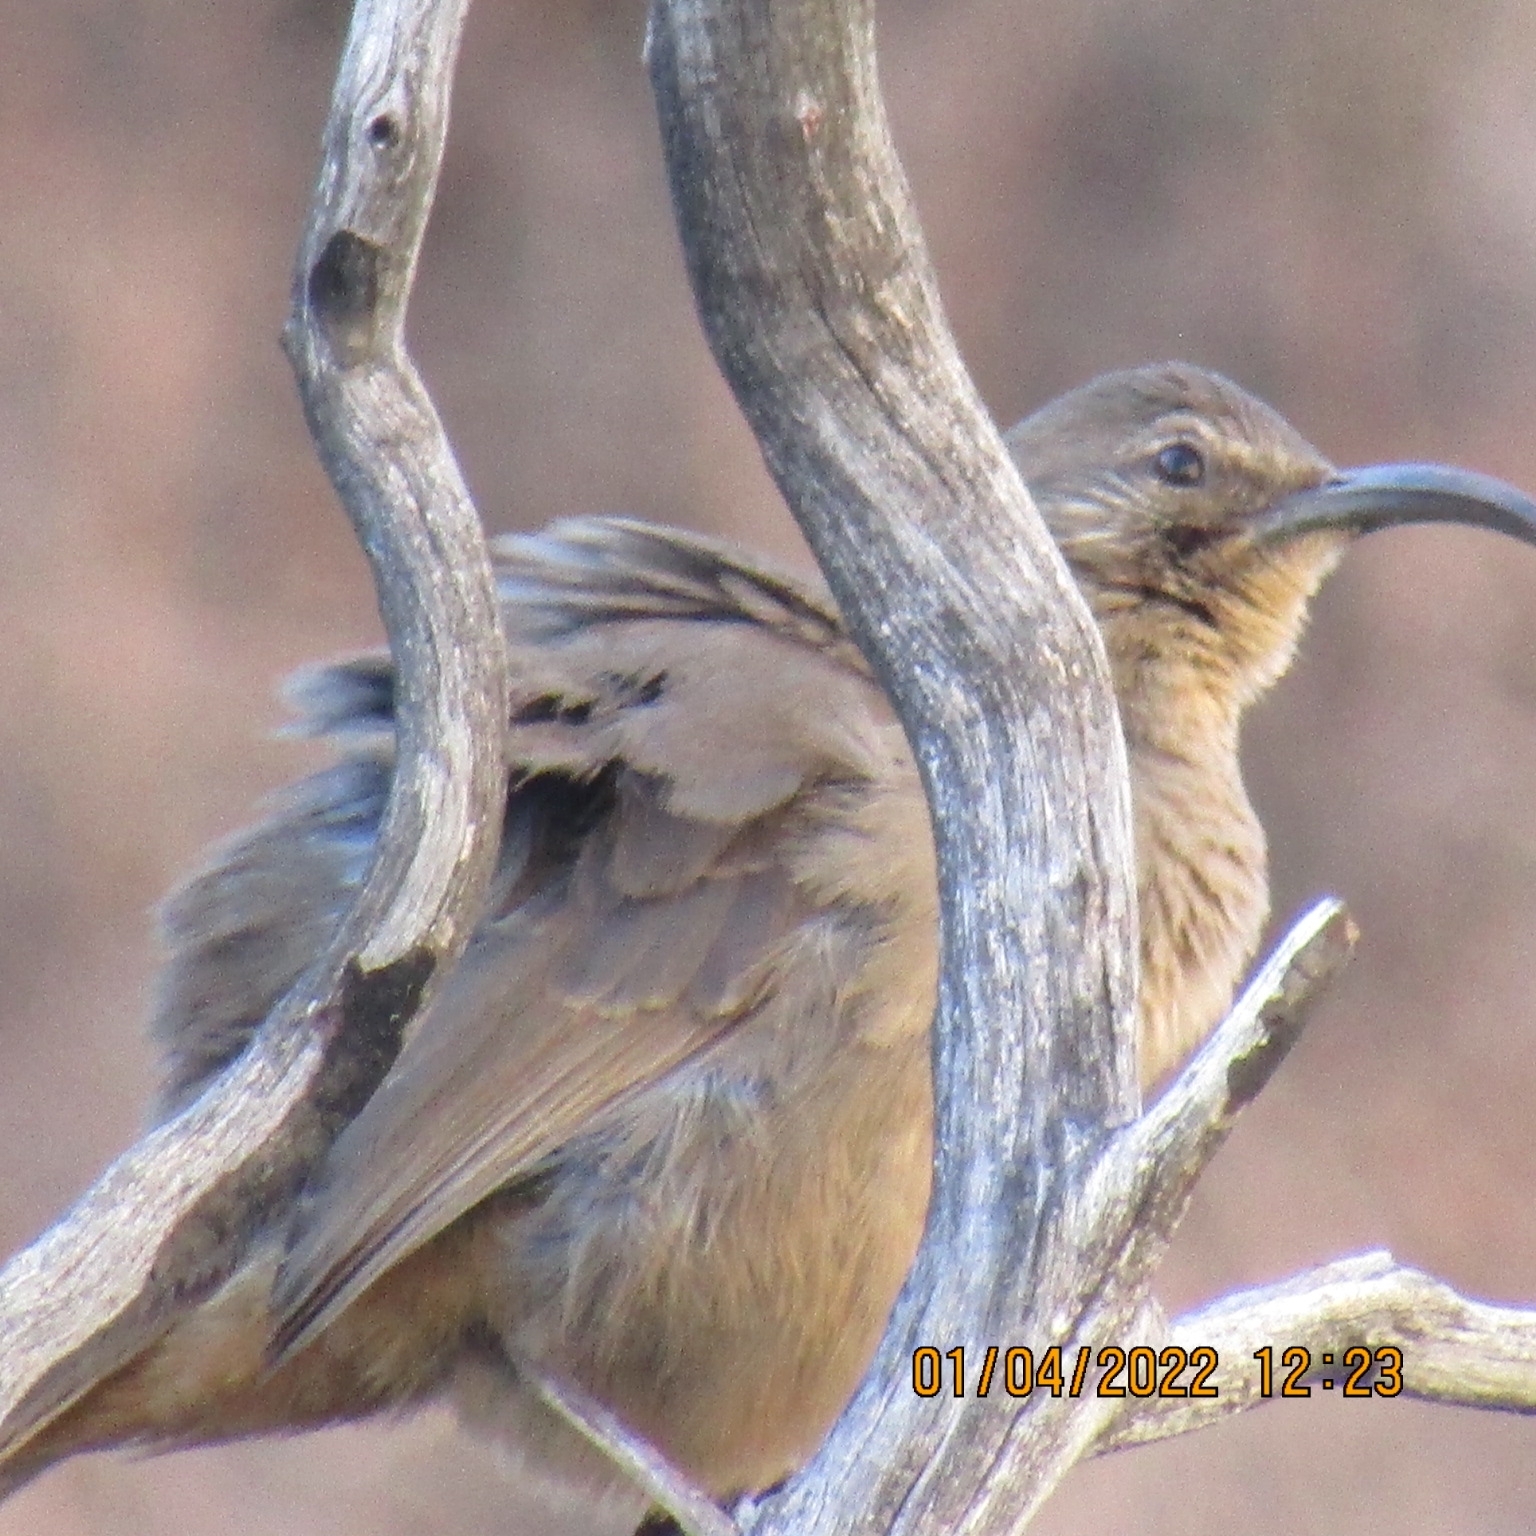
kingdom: Animalia
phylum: Chordata
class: Aves
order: Passeriformes
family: Mimidae
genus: Toxostoma
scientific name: Toxostoma redivivum
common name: California thrasher
